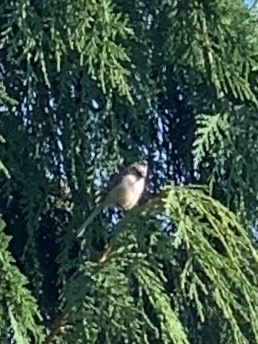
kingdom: Animalia
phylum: Chordata
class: Aves
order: Passeriformes
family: Aegithalidae
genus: Psaltriparus
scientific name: Psaltriparus minimus
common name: American bushtit
